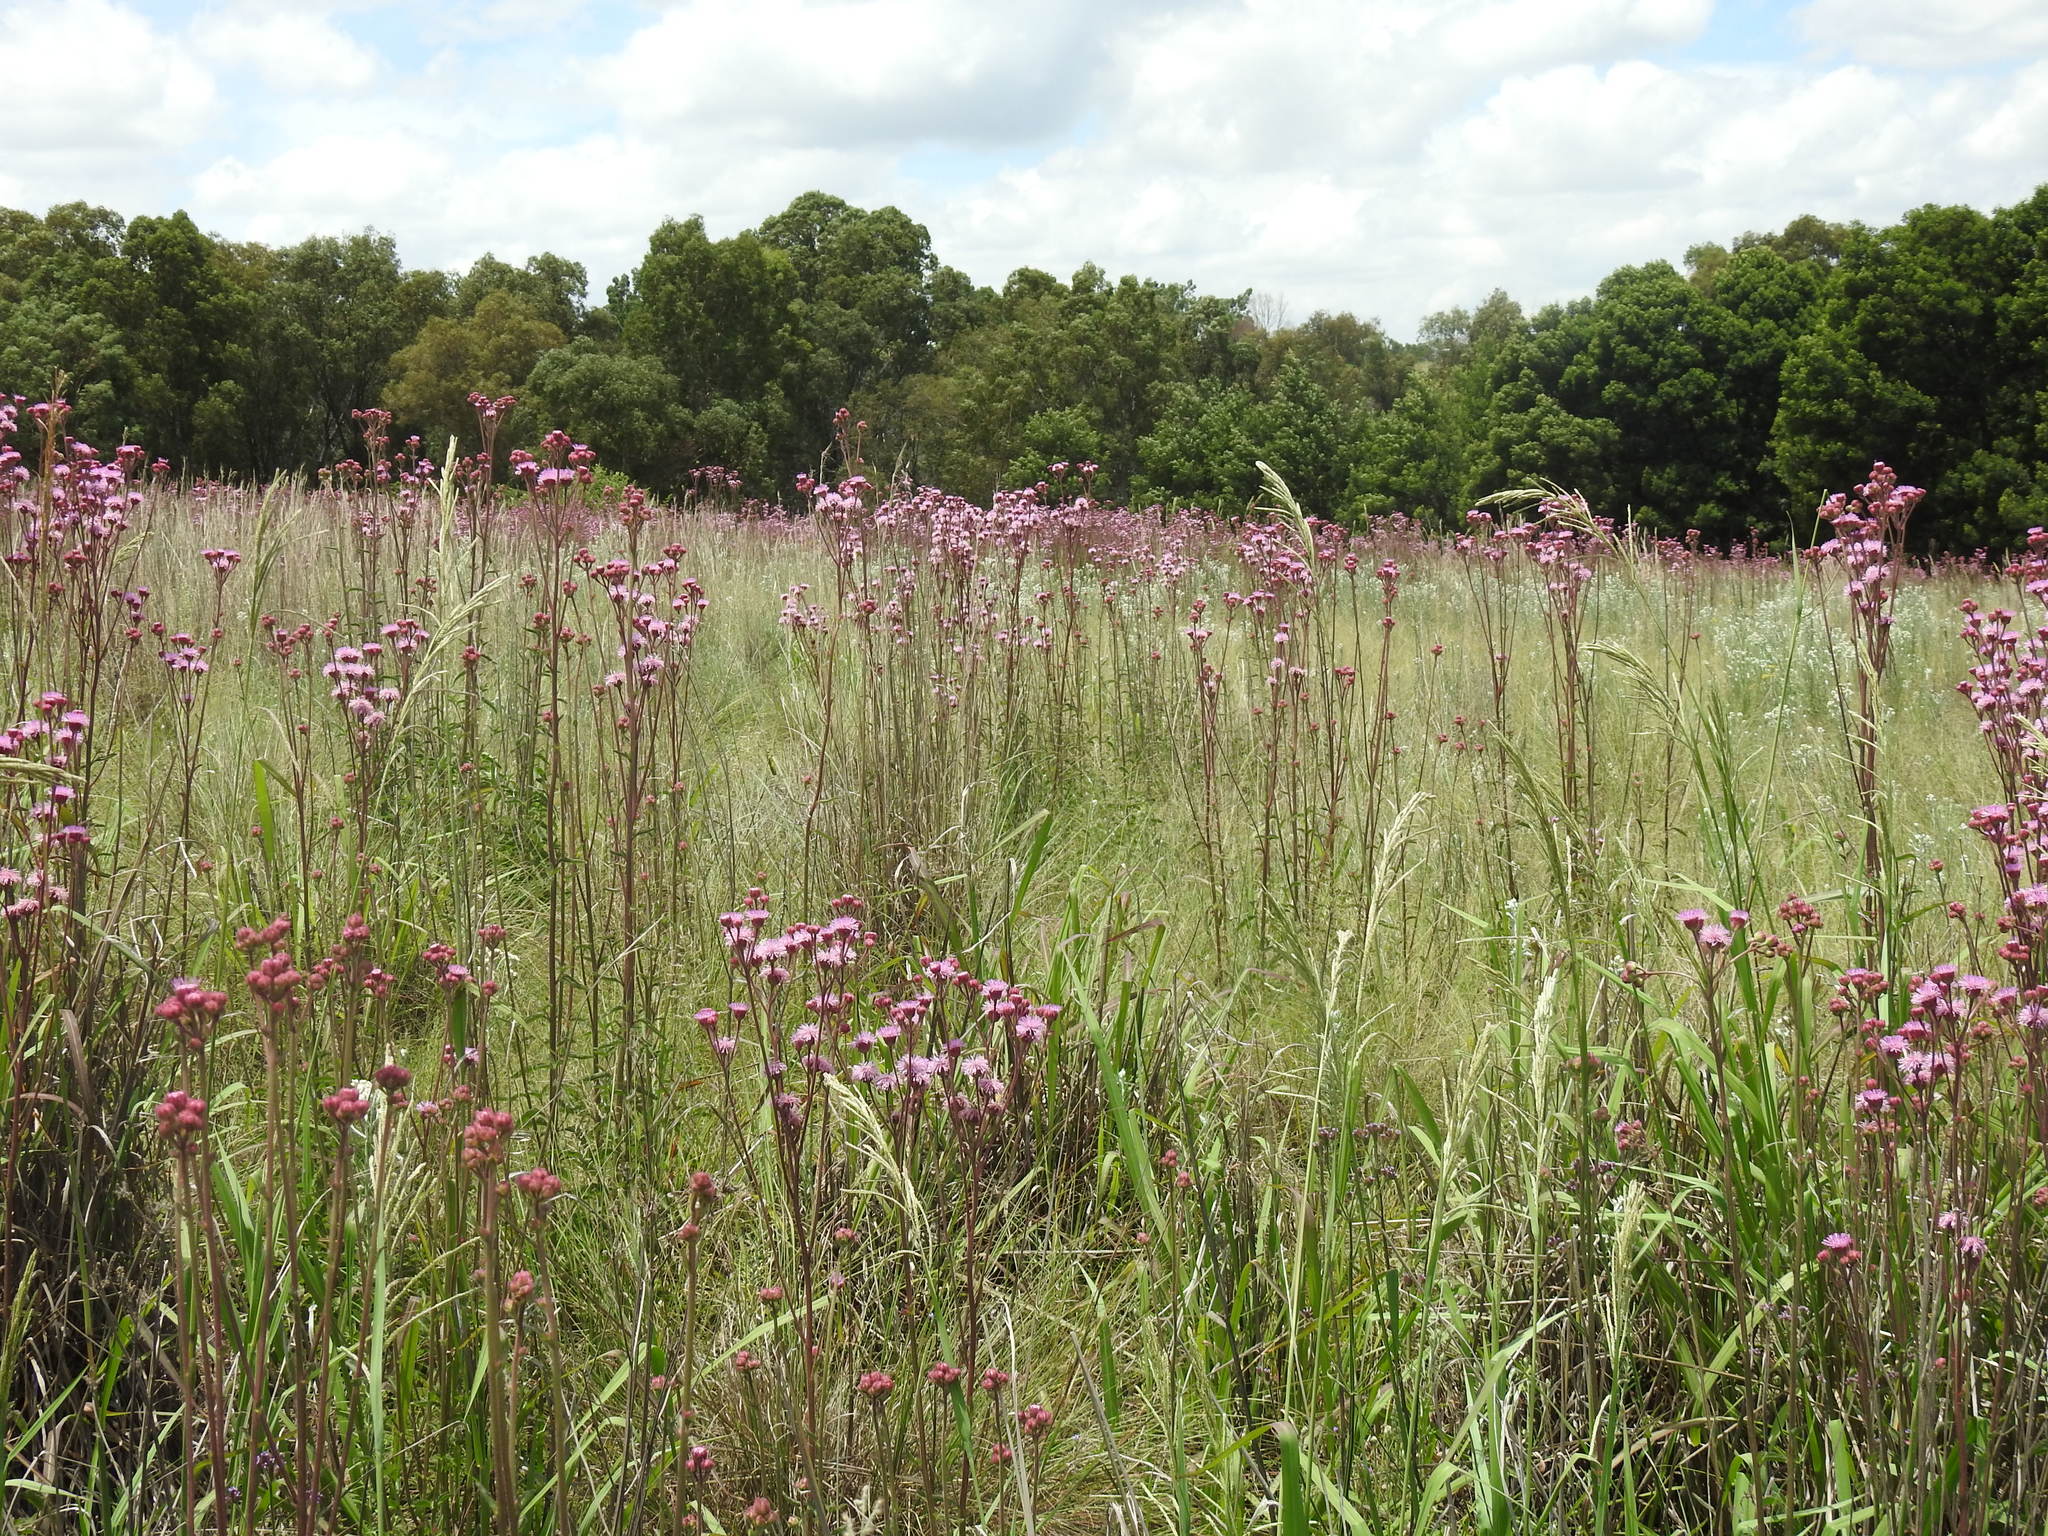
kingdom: Plantae
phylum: Tracheophyta
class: Magnoliopsida
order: Asterales
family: Asteraceae
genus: Campuloclinium
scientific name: Campuloclinium macrocephalum
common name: Pompomweed
